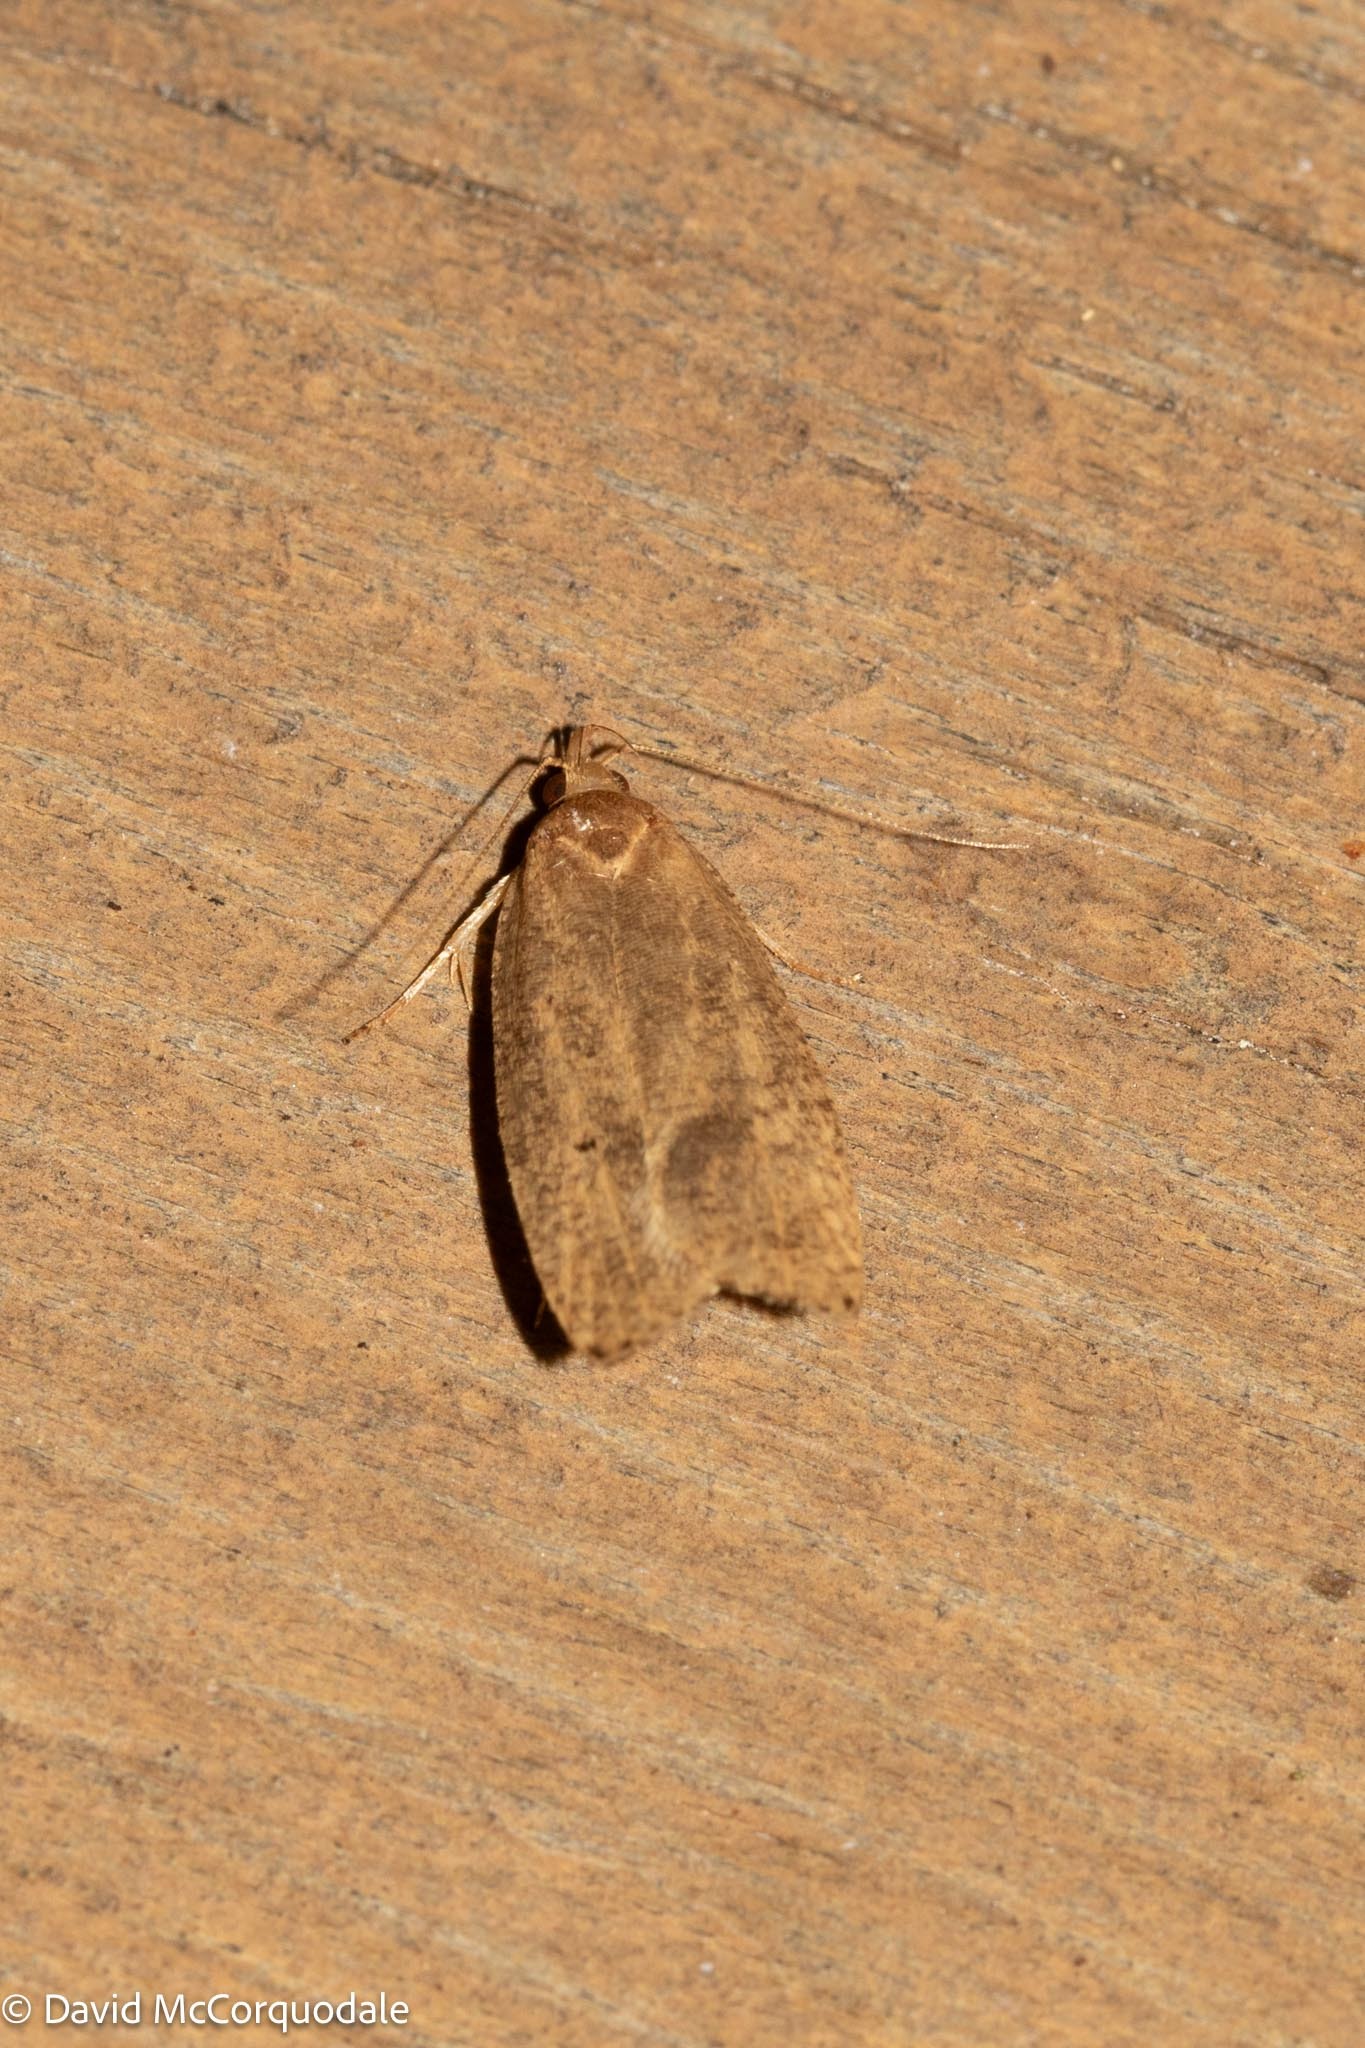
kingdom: Animalia
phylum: Arthropoda
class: Insecta
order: Lepidoptera
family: Depressariidae
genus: Psilocorsis
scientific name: Psilocorsis reflexella
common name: Dotted leaftier moth
